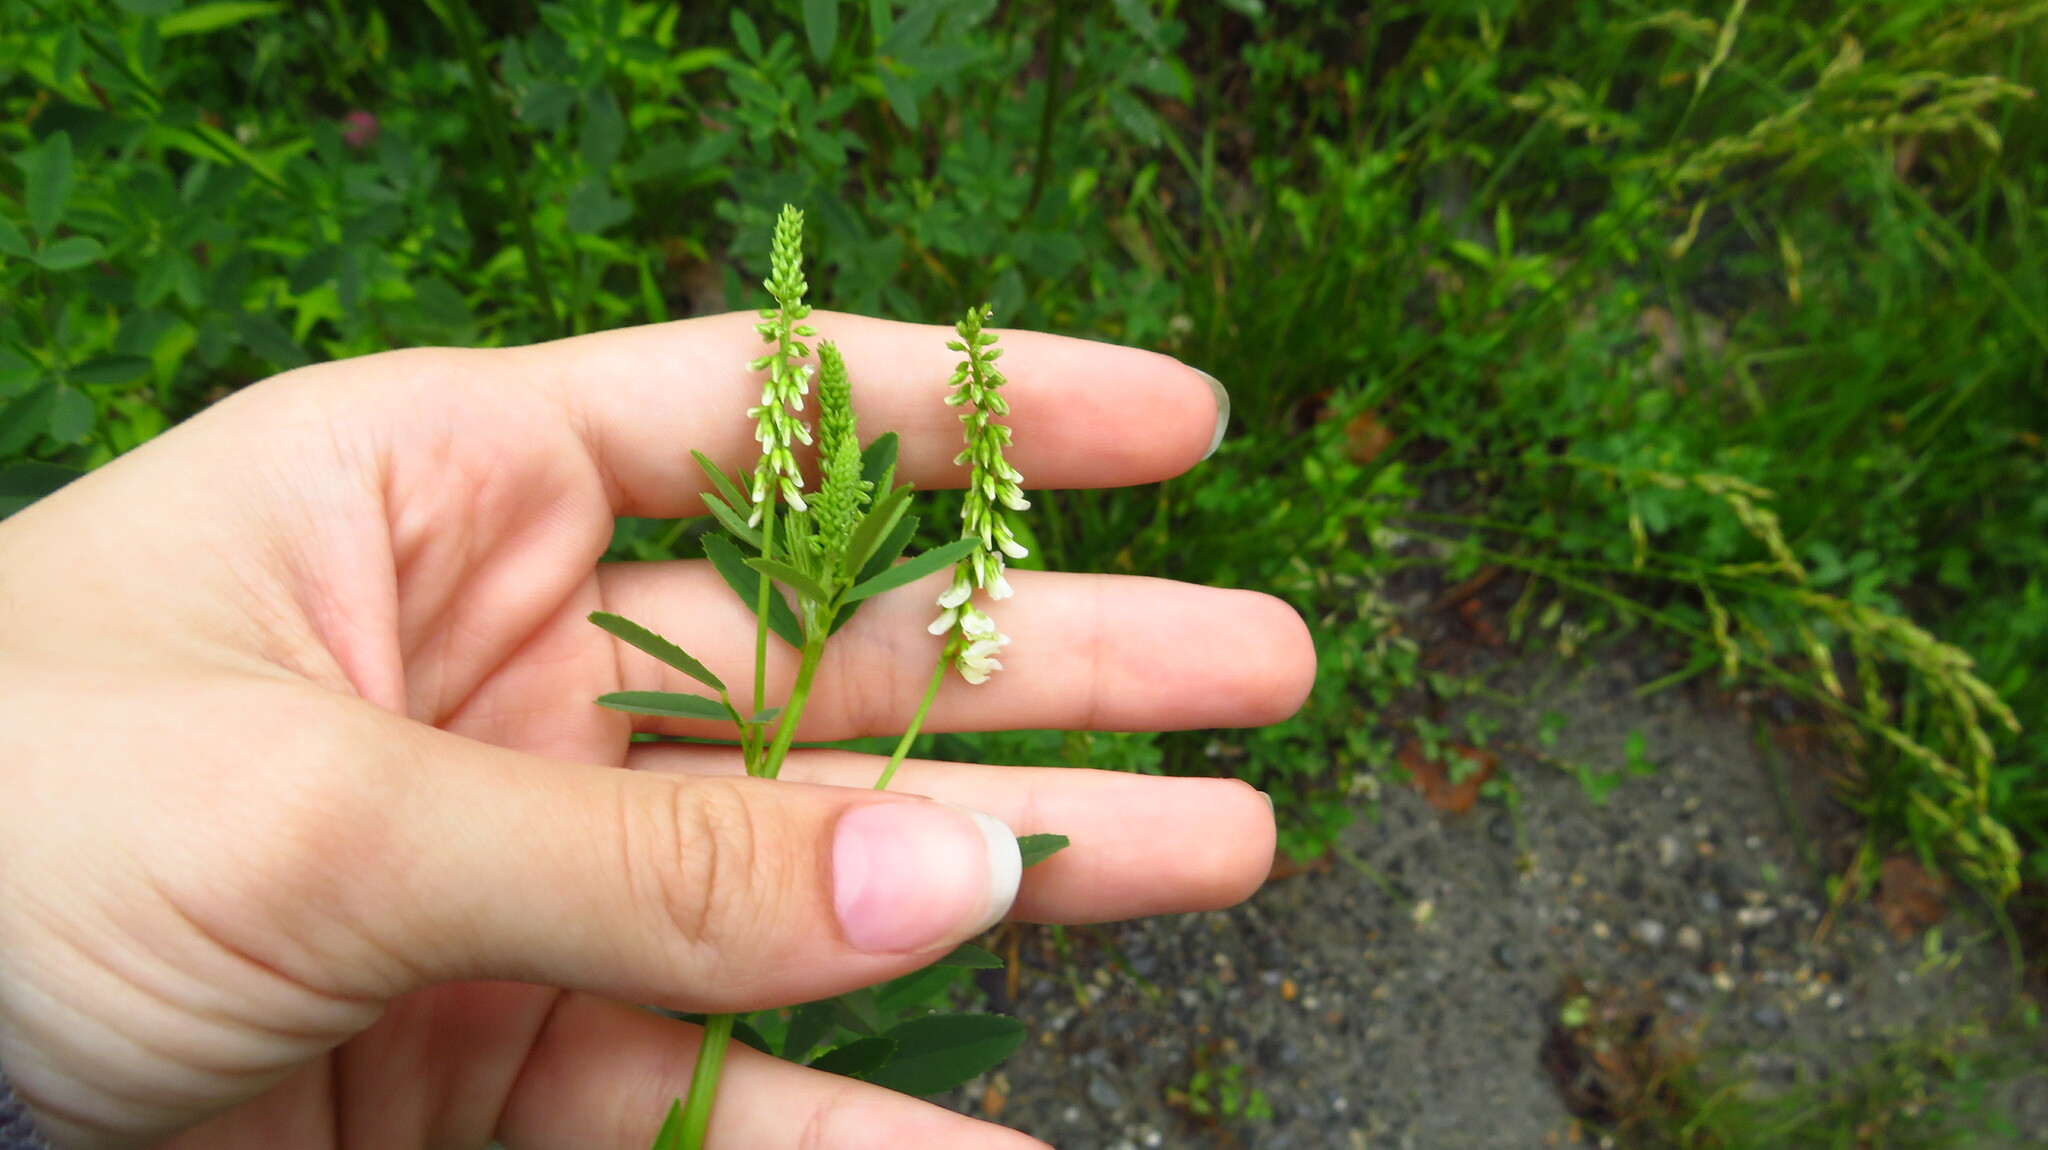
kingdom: Plantae
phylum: Tracheophyta
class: Magnoliopsida
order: Fabales
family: Fabaceae
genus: Melilotus
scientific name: Melilotus albus
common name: White melilot
